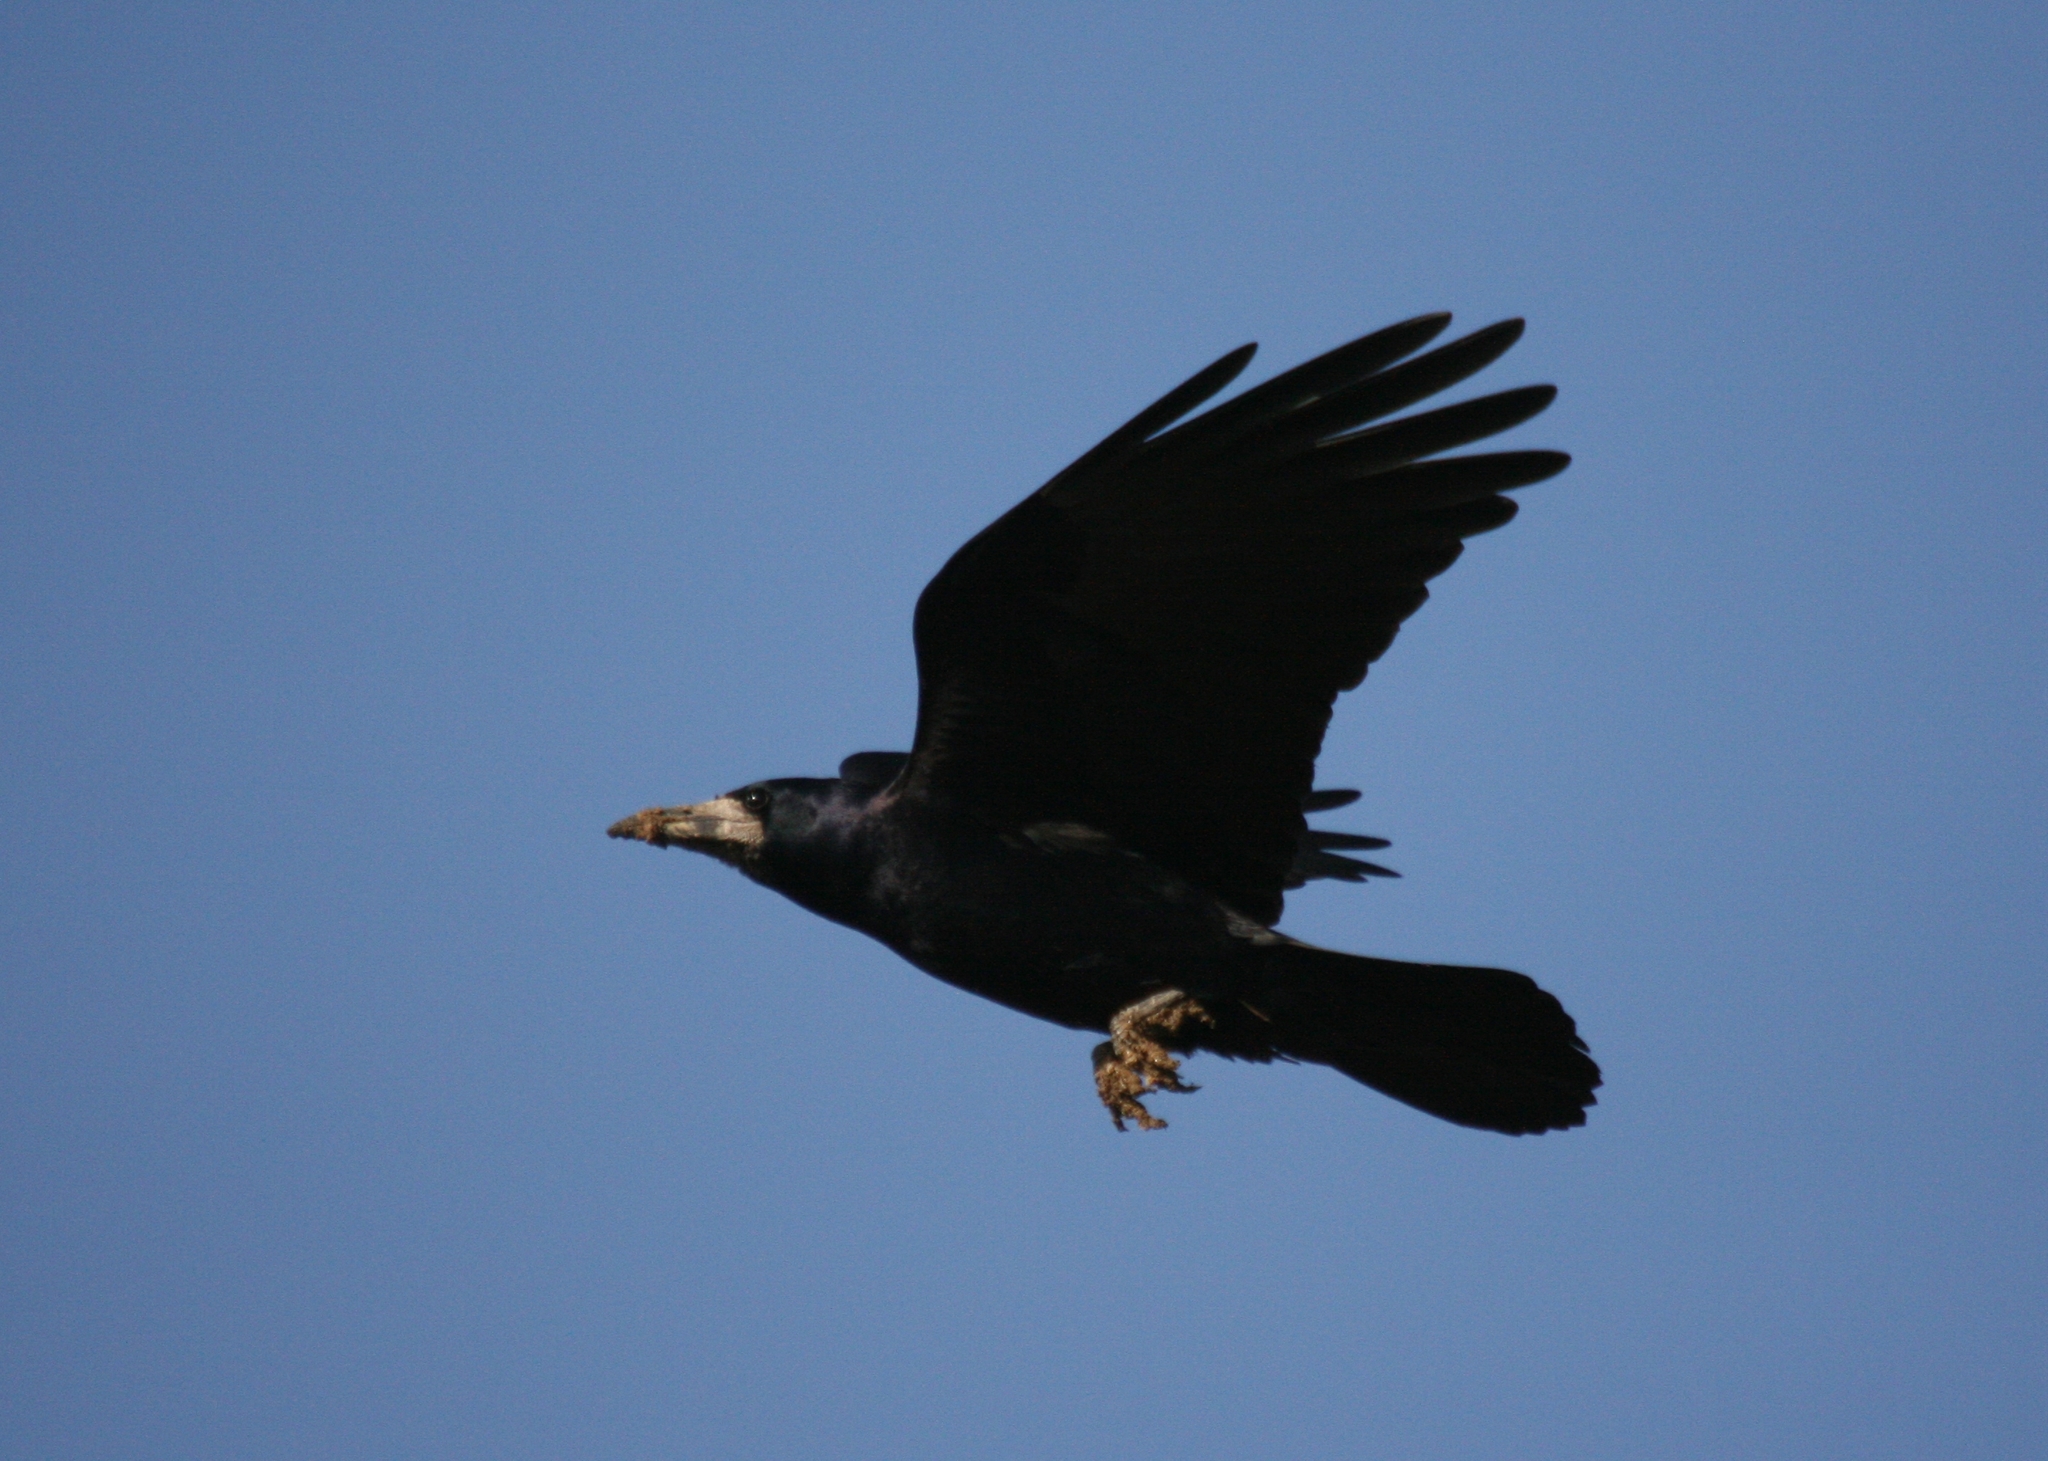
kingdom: Animalia
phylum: Chordata
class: Aves
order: Passeriformes
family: Corvidae
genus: Corvus
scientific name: Corvus frugilegus
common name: Rook
